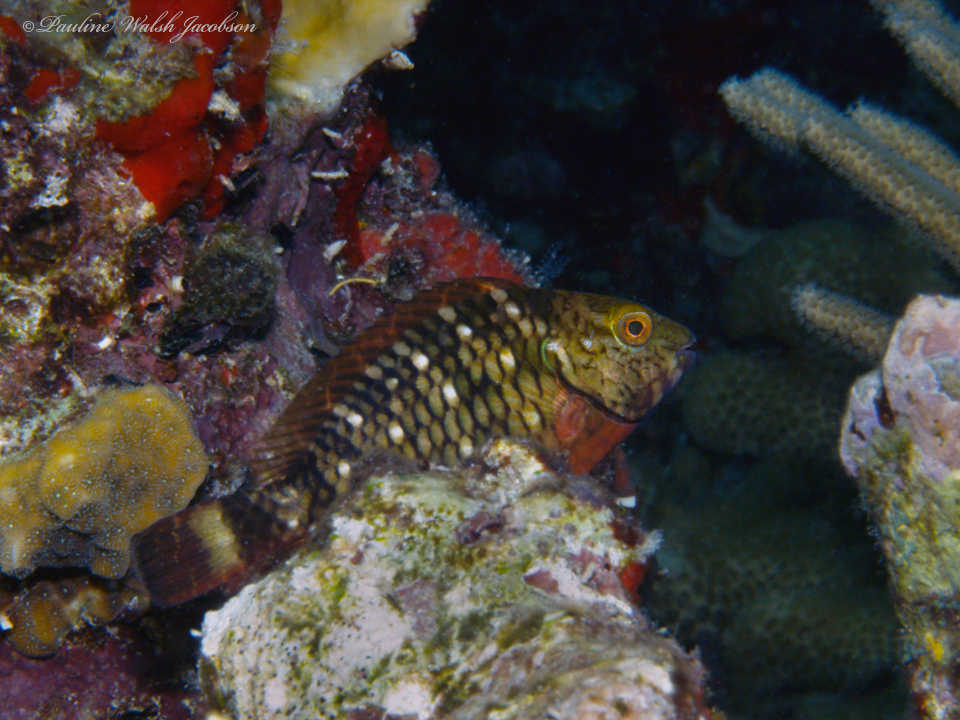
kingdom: Animalia
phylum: Chordata
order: Perciformes
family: Scaridae
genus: Sparisoma
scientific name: Sparisoma viride
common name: Stoplight parrotfish
